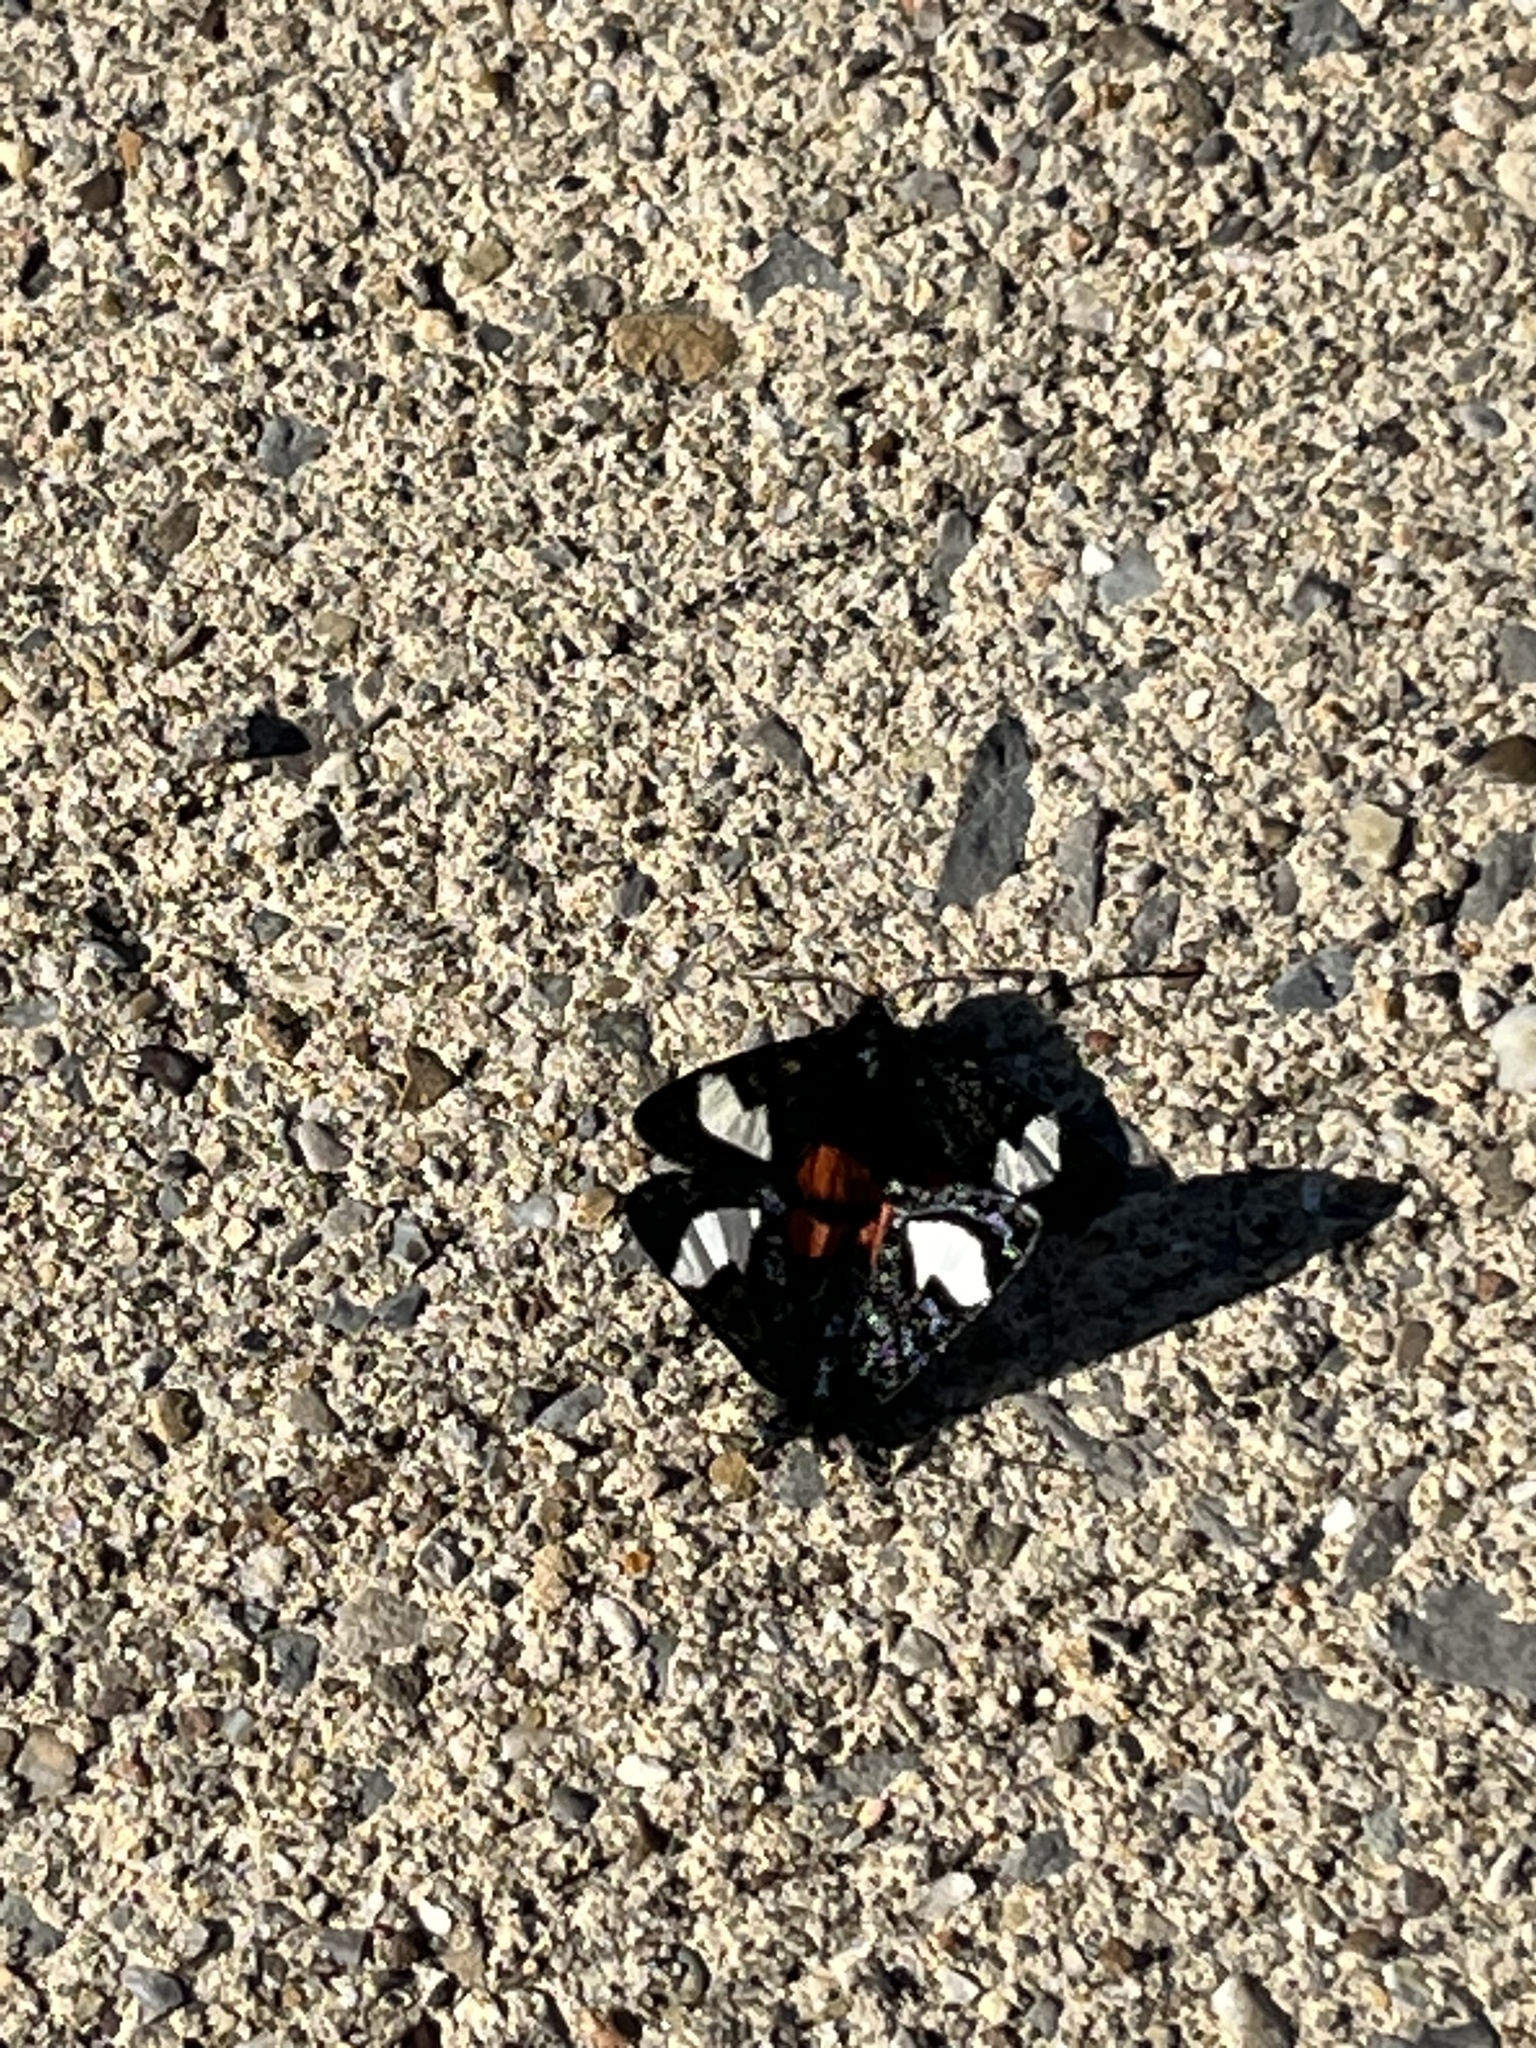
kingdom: Animalia
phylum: Arthropoda
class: Insecta
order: Lepidoptera
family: Noctuidae
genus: Psychomorpha
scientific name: Psychomorpha epimenis
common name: Grapevine epimenis moth
